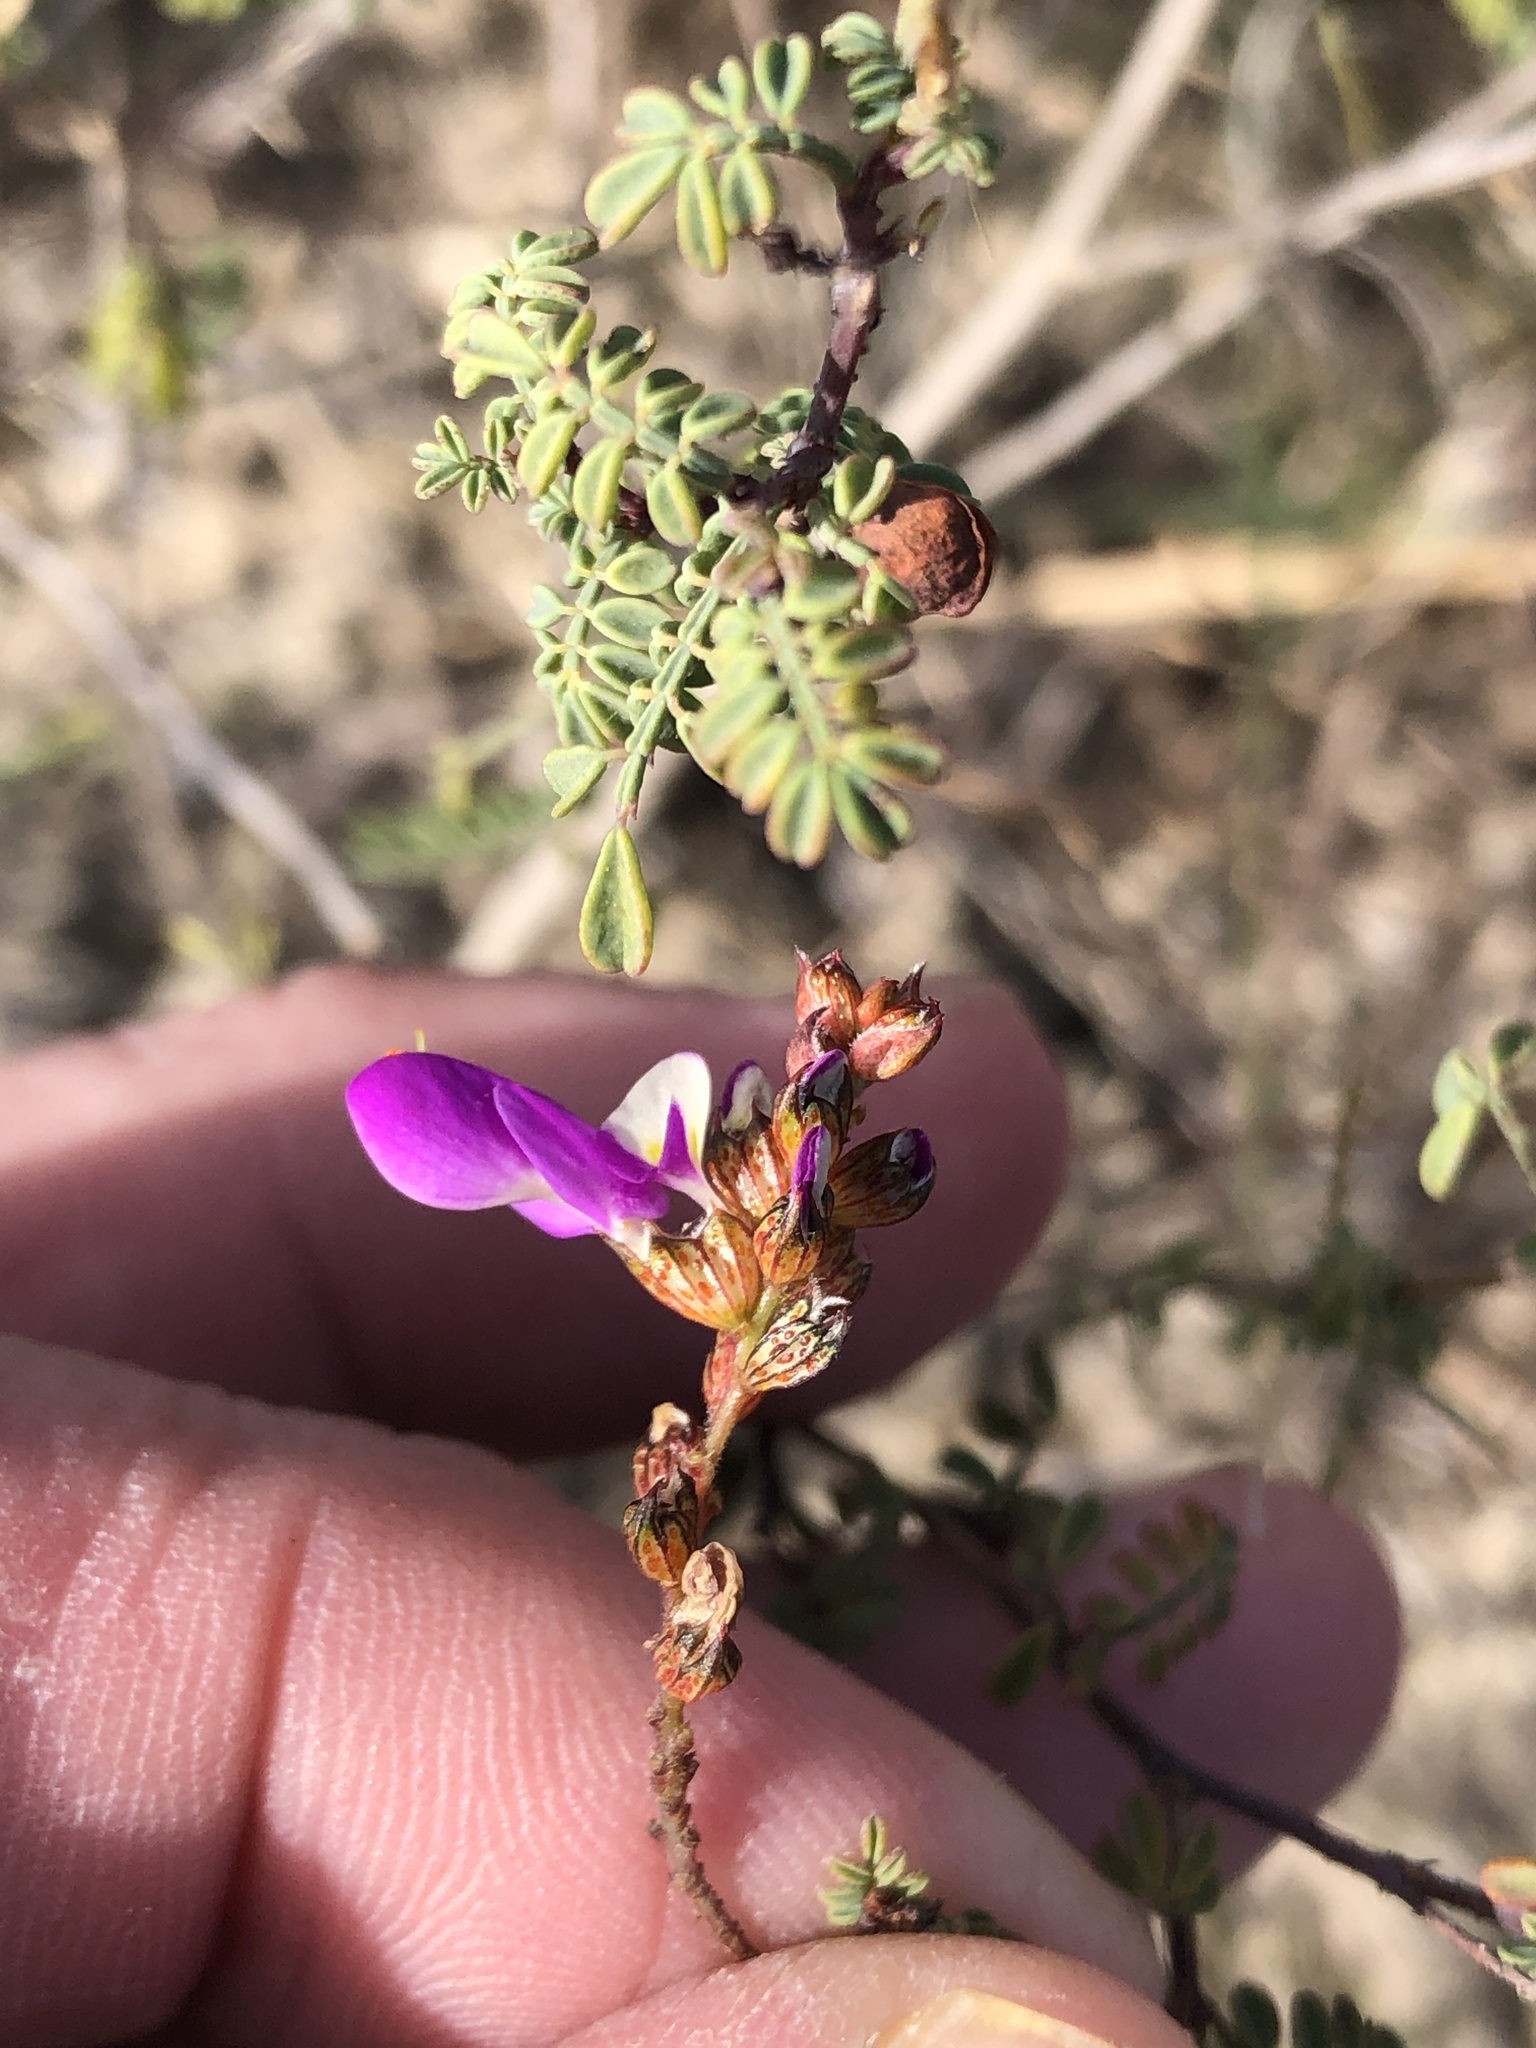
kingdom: Plantae
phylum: Tracheophyta
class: Magnoliopsida
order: Fabales
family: Fabaceae
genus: Dalea
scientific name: Dalea frutescens
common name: Black dalea
